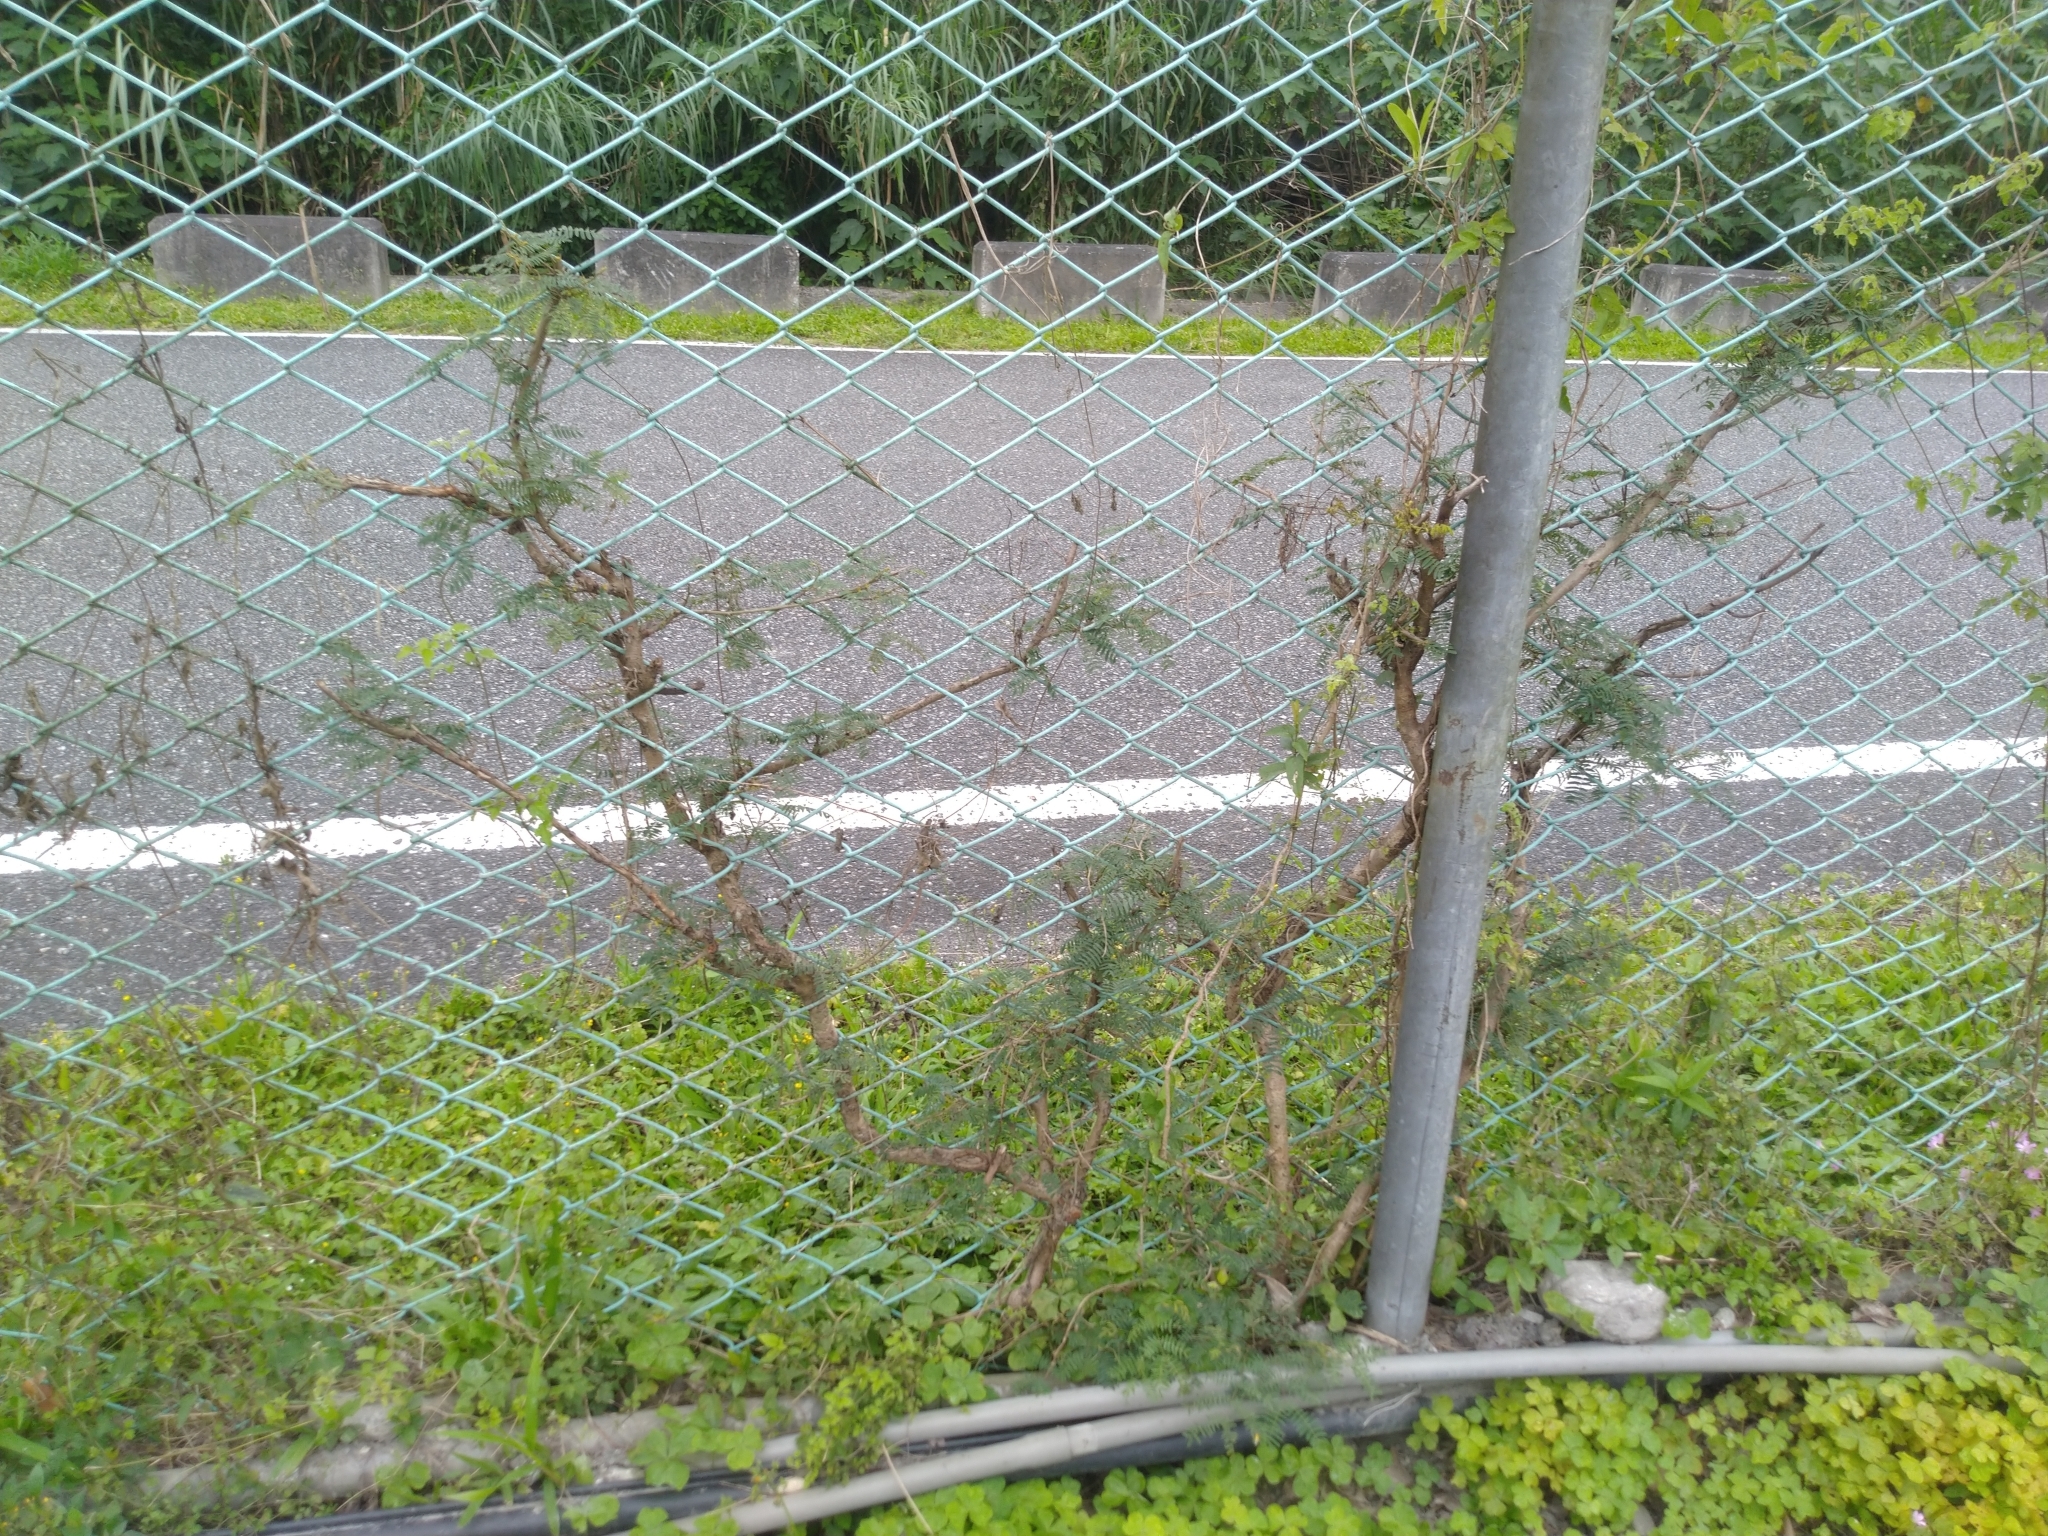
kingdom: Plantae
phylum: Tracheophyta
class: Magnoliopsida
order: Fabales
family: Fabaceae
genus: Leucaena
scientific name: Leucaena leucocephala
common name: White leadtree
